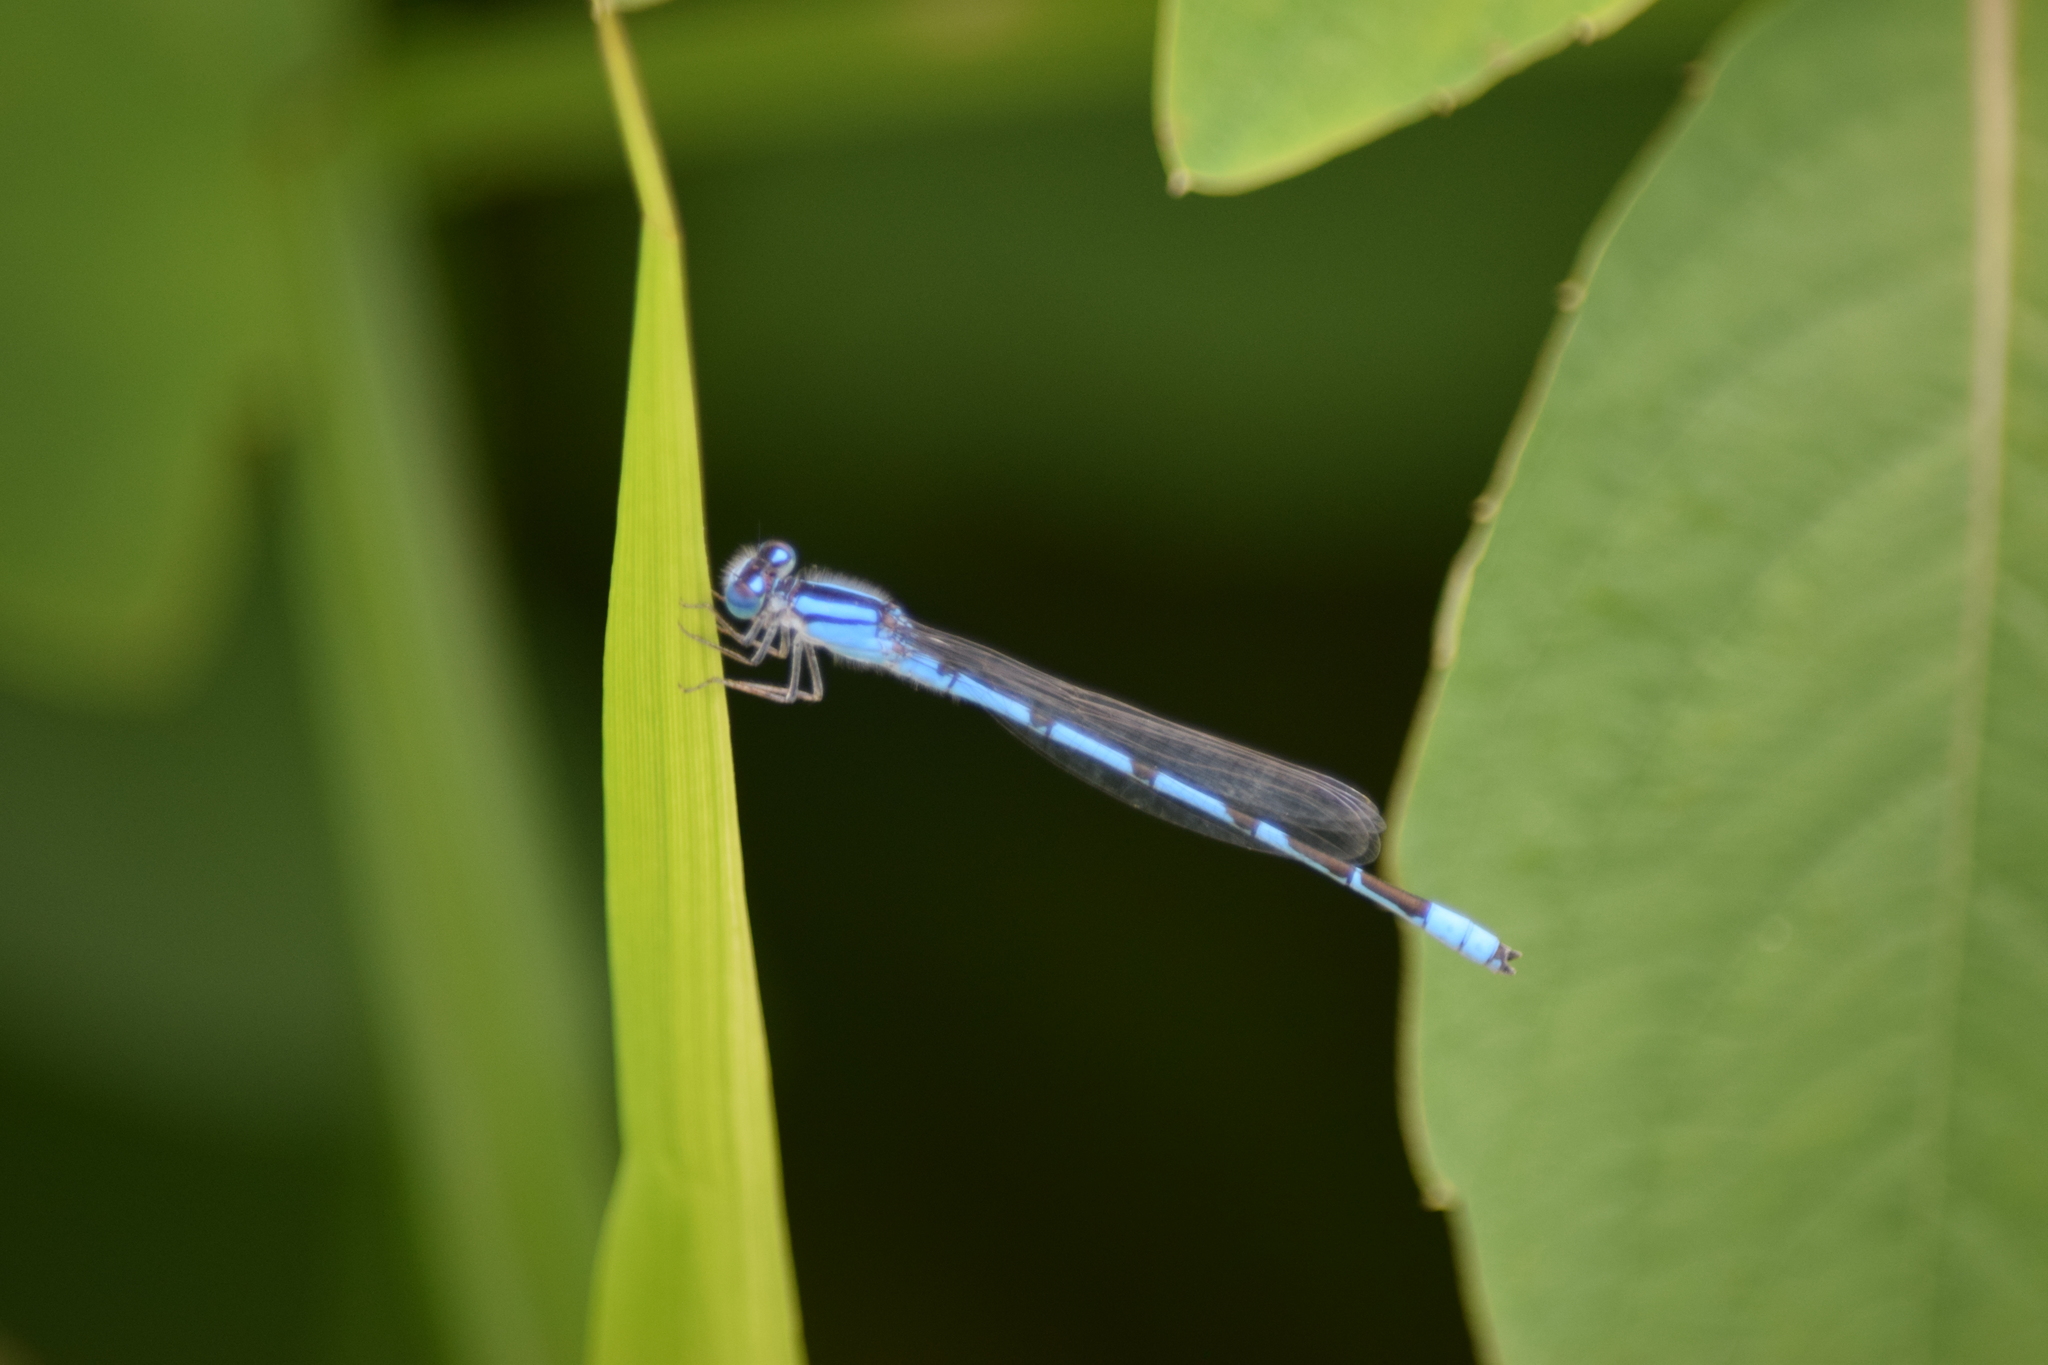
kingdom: Animalia
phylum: Arthropoda
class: Insecta
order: Odonata
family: Coenagrionidae
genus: Enallagma
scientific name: Enallagma civile
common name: Damselfly
